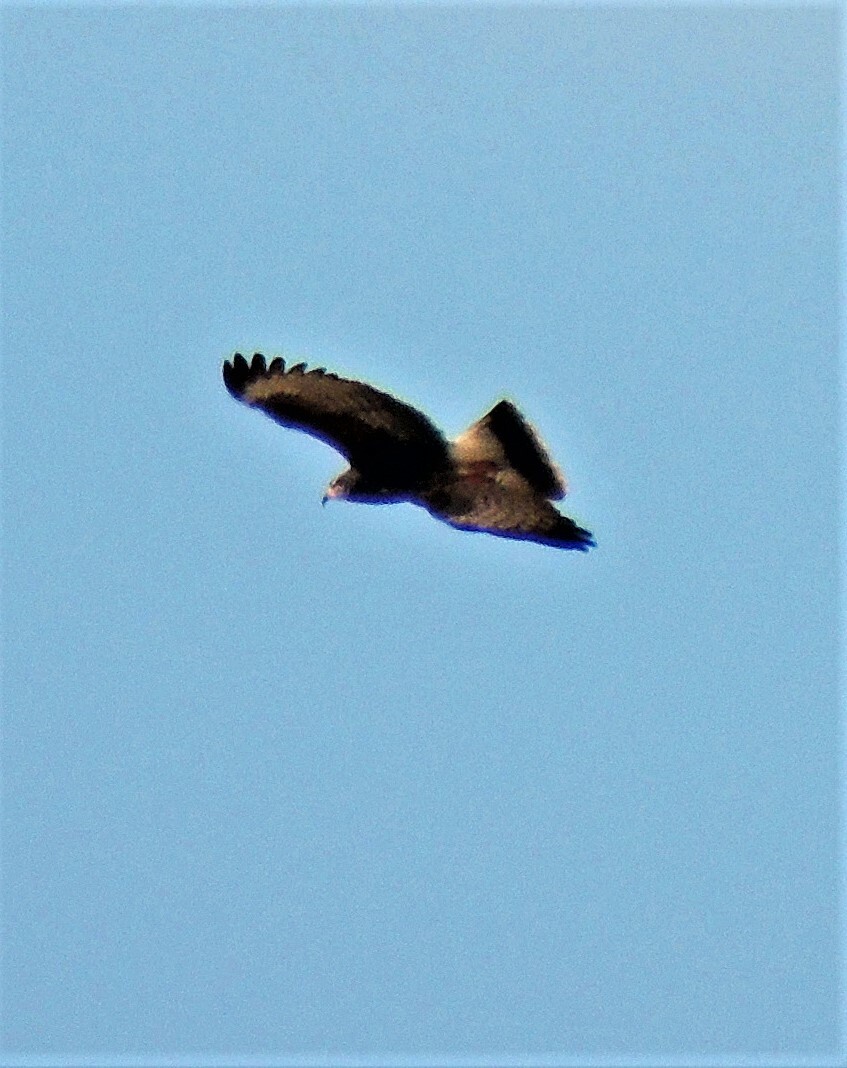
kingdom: Animalia
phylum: Chordata
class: Aves
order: Accipitriformes
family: Accipitridae
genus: Rostrhamus
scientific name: Rostrhamus sociabilis
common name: Snail kite
